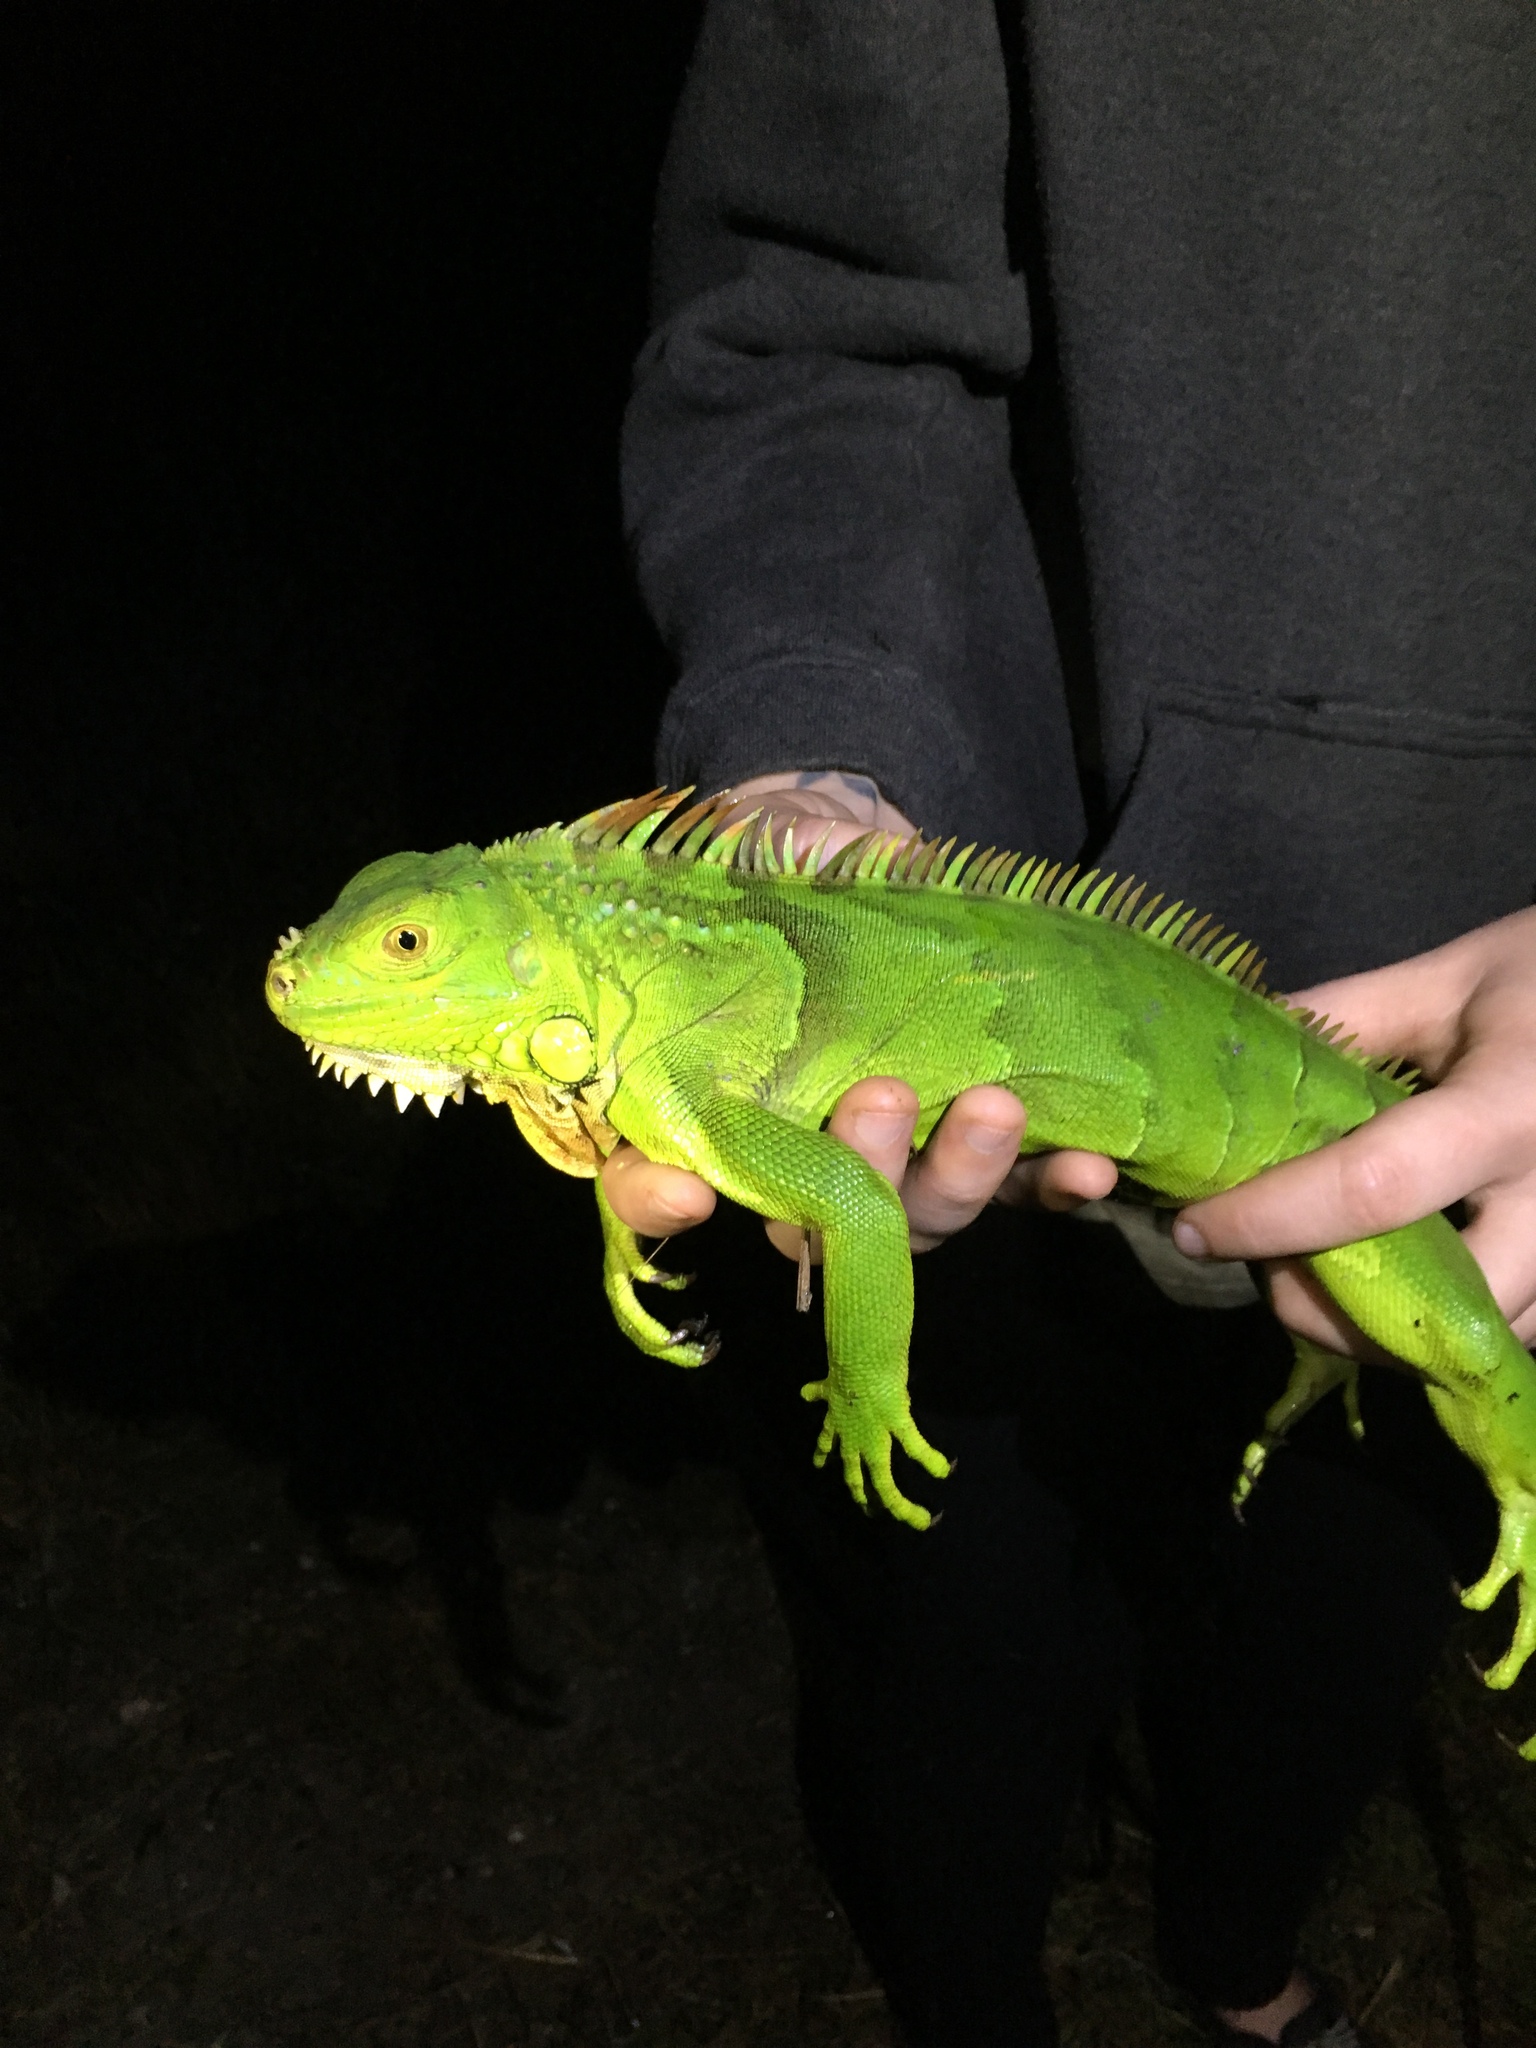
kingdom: Animalia
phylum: Chordata
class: Squamata
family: Iguanidae
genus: Iguana
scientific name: Iguana iguana
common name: Green iguana
